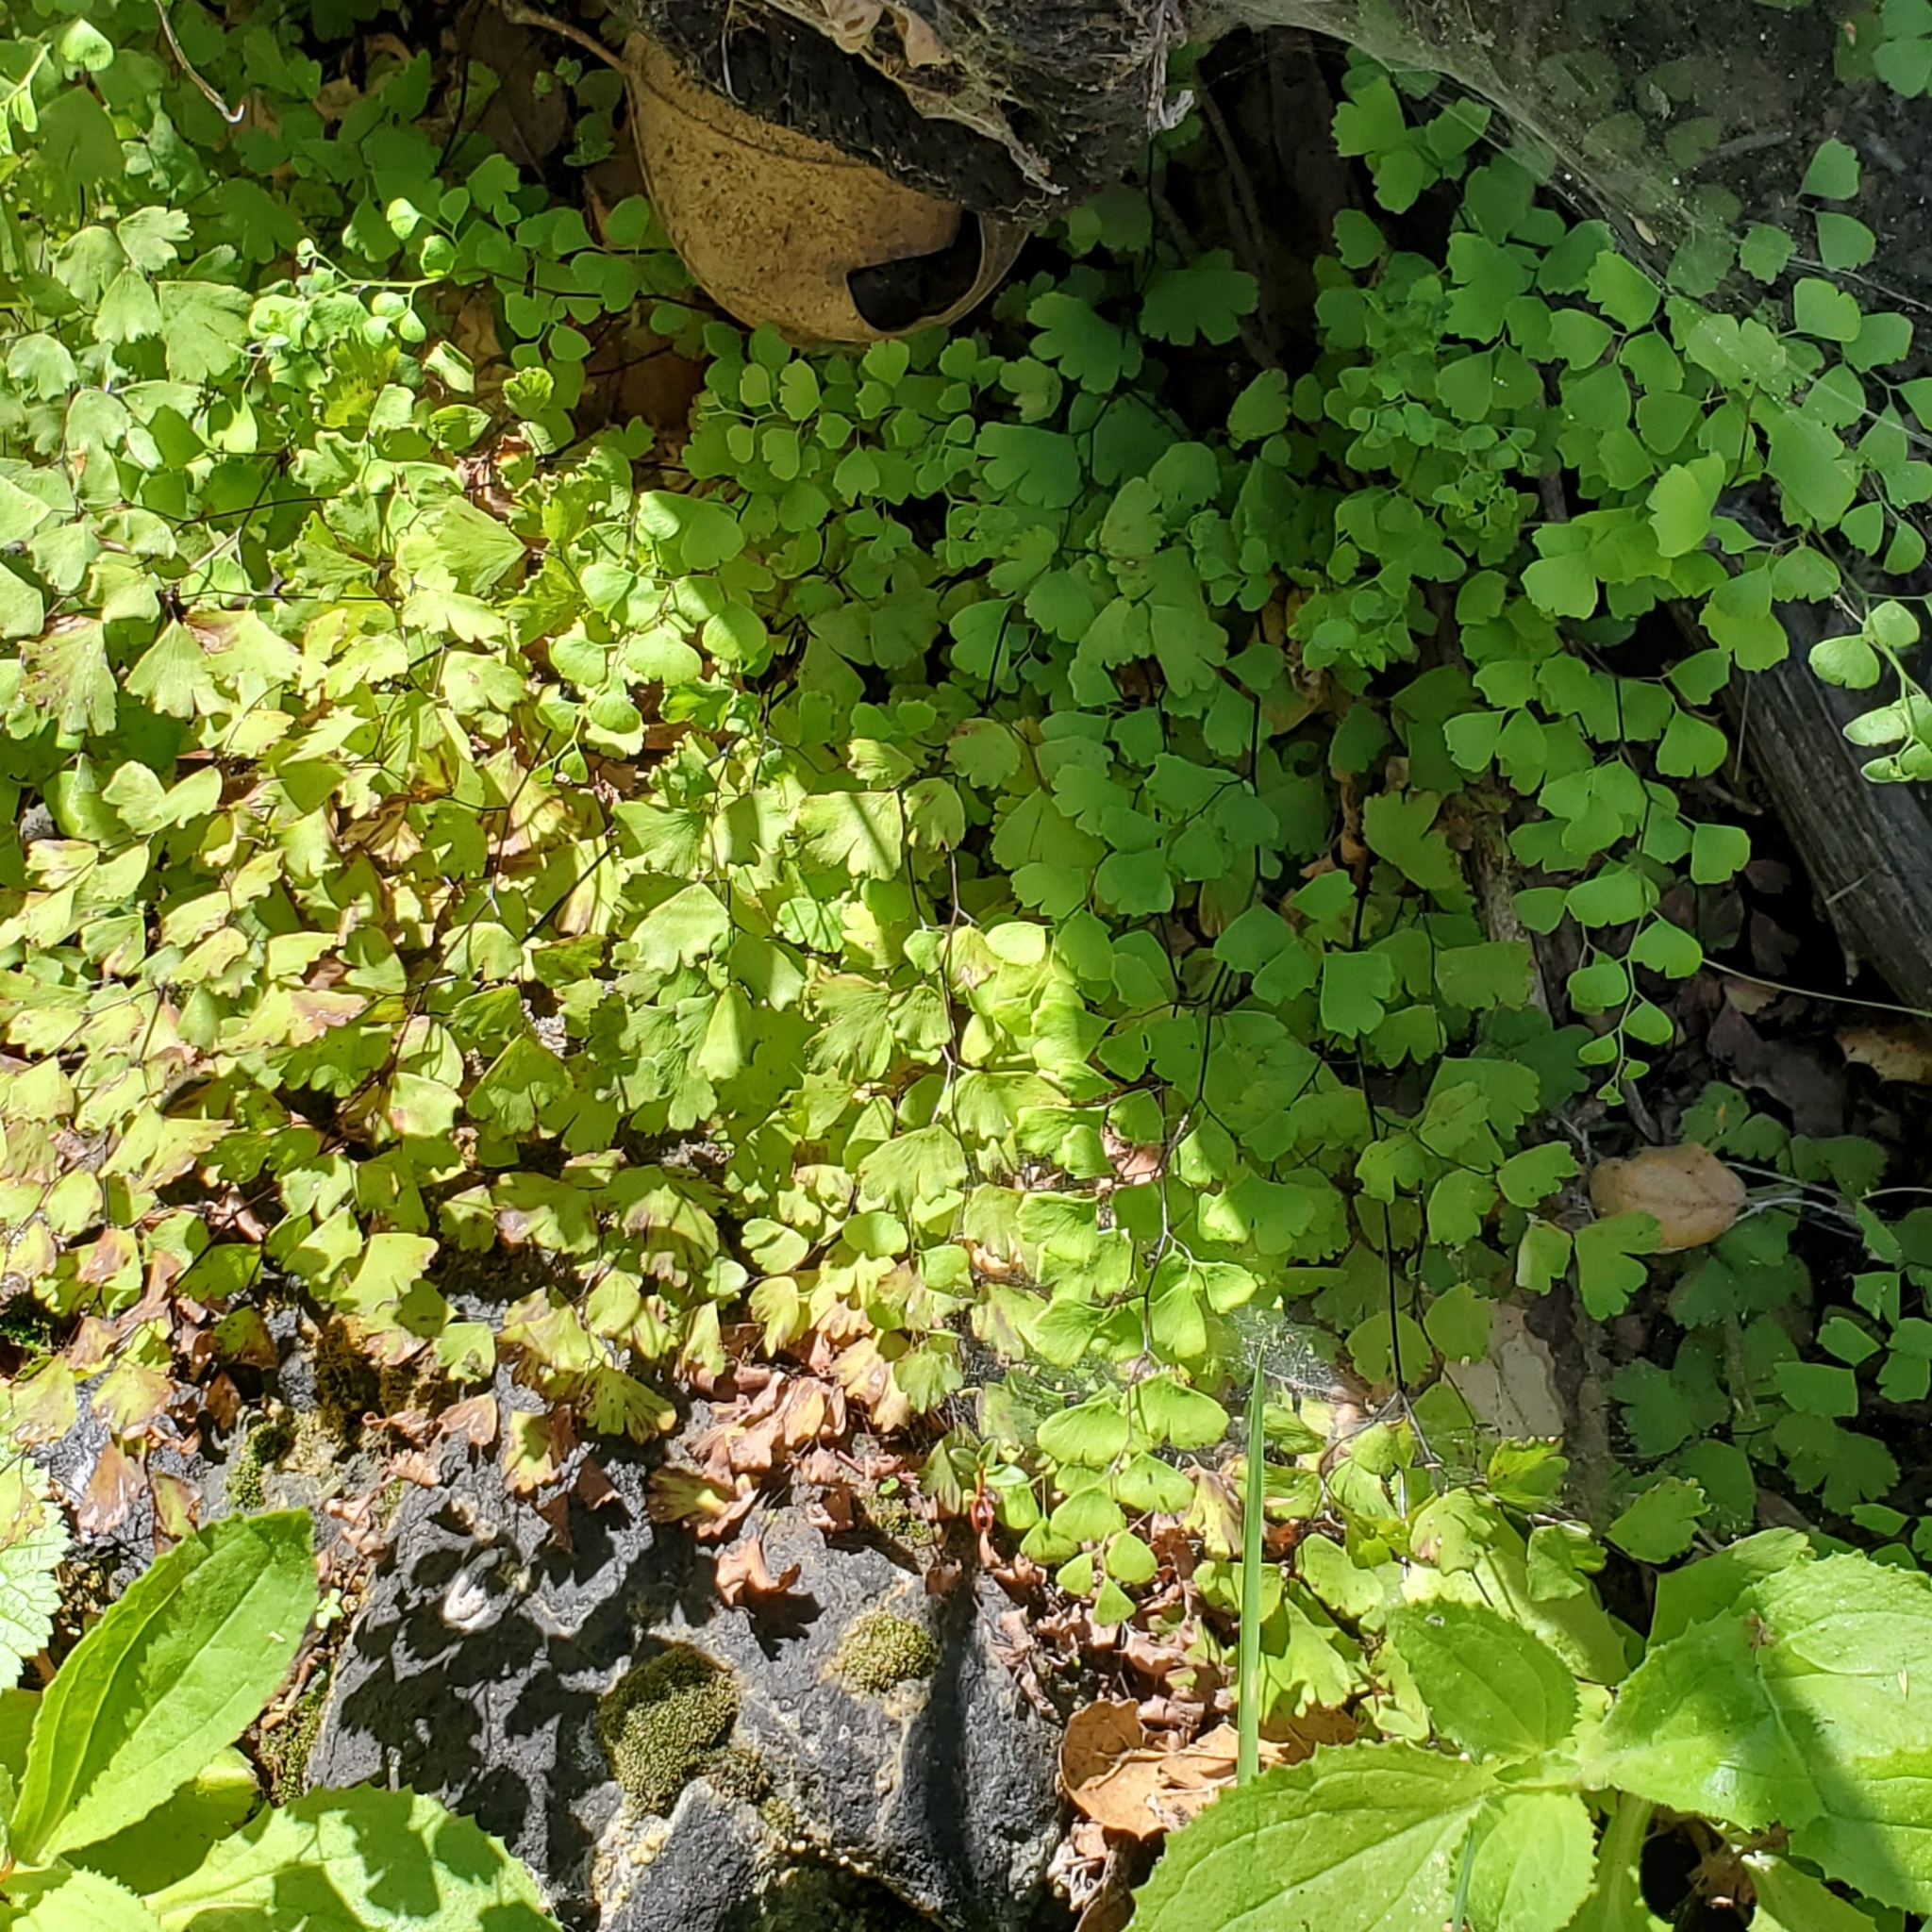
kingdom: Plantae
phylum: Tracheophyta
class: Polypodiopsida
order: Polypodiales
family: Pteridaceae
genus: Adiantum
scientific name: Adiantum capillus-veneris
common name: Maidenhair fern
